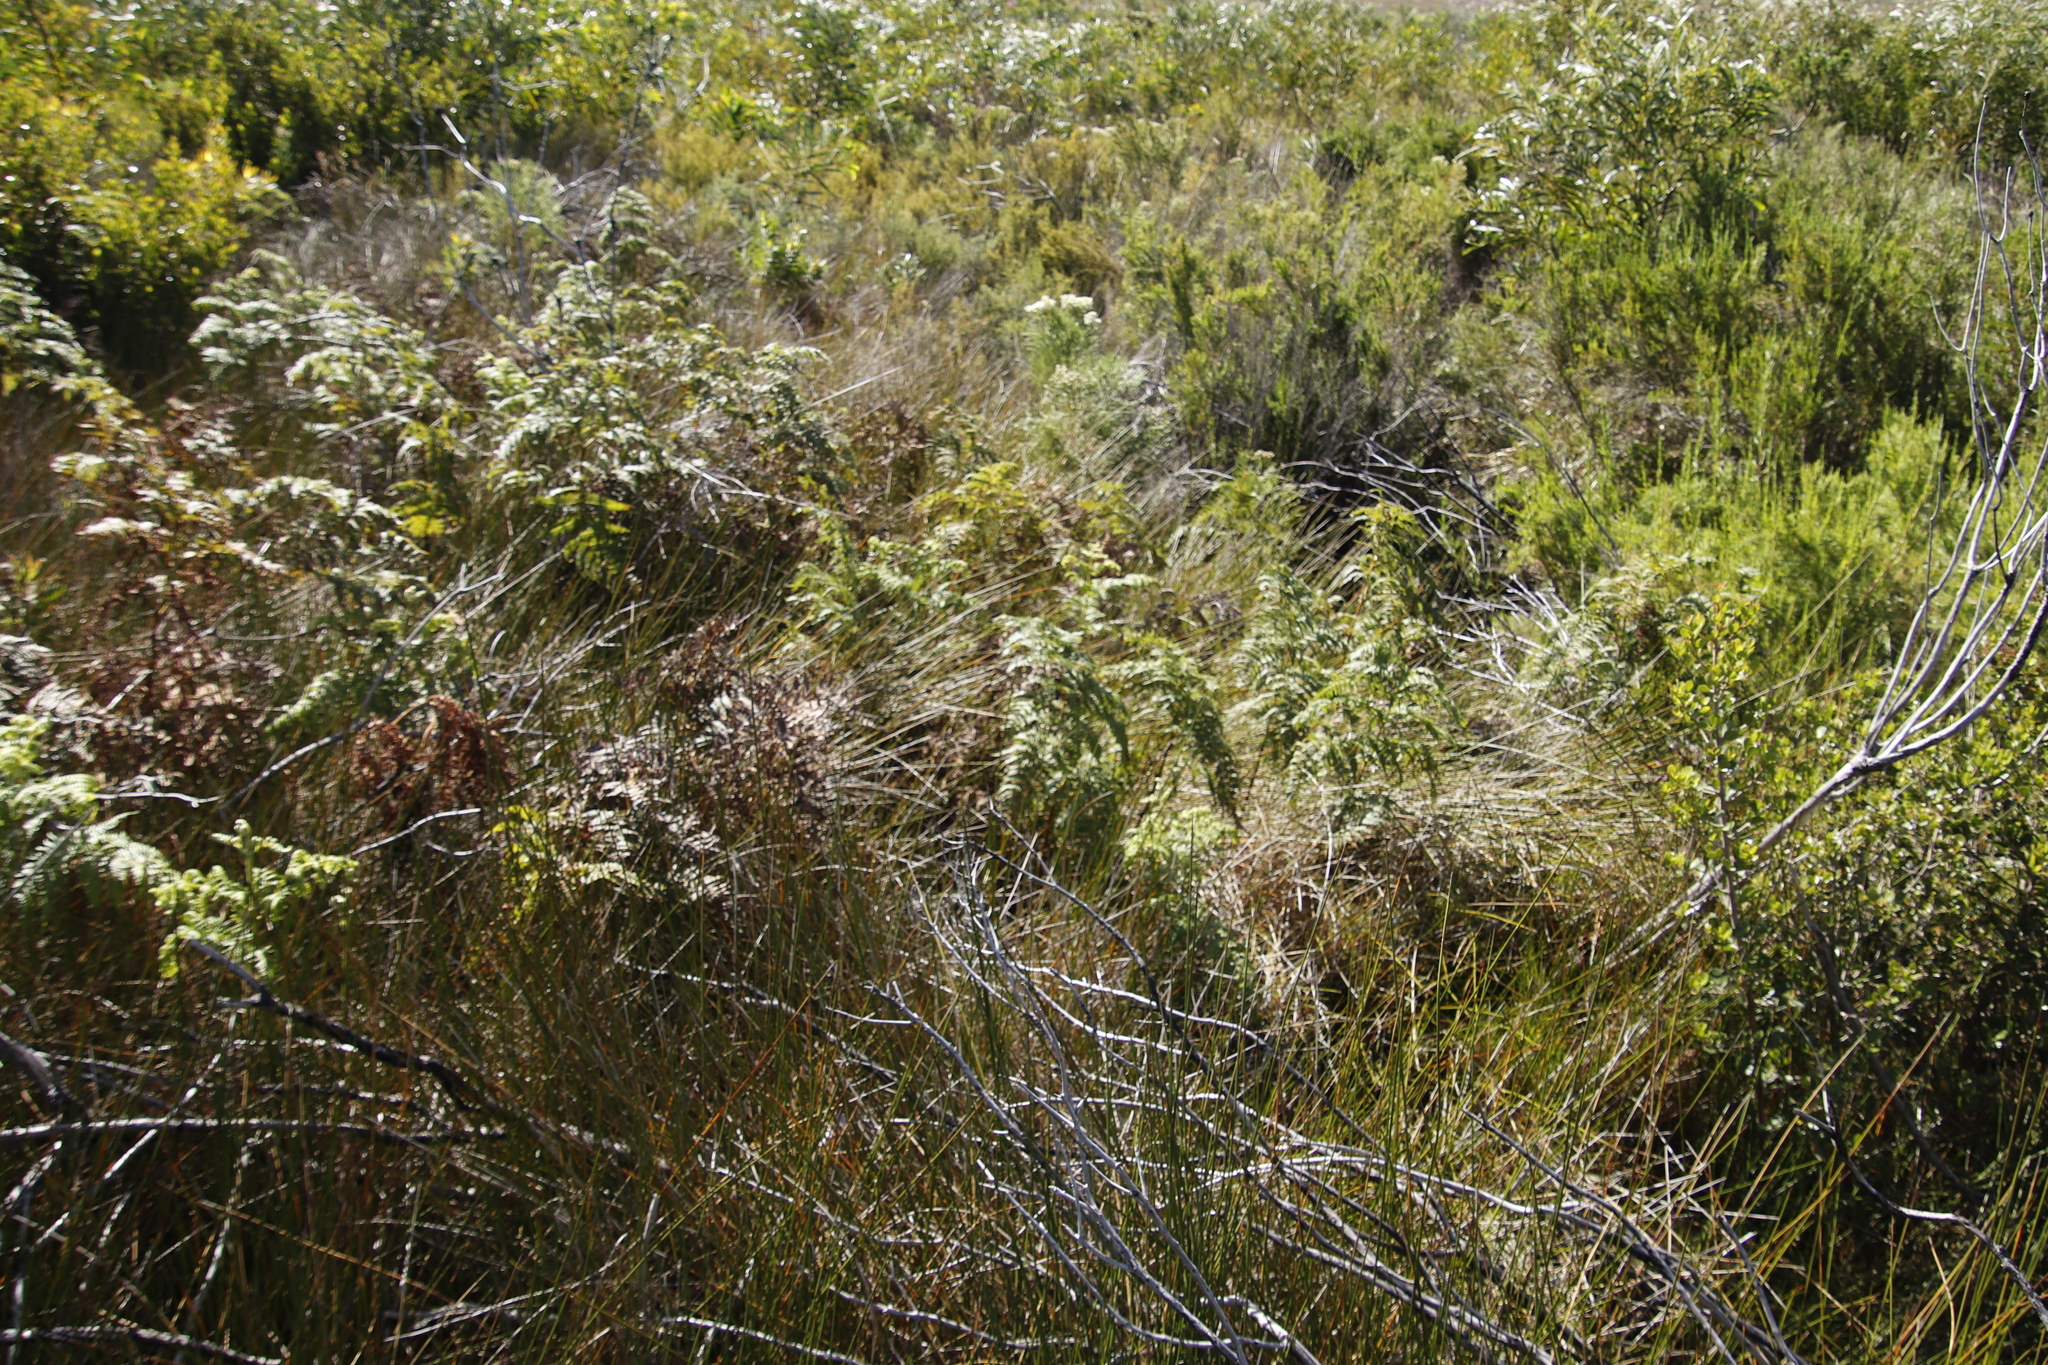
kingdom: Plantae
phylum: Tracheophyta
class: Polypodiopsida
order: Polypodiales
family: Dennstaedtiaceae
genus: Pteridium
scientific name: Pteridium aquilinum
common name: Bracken
